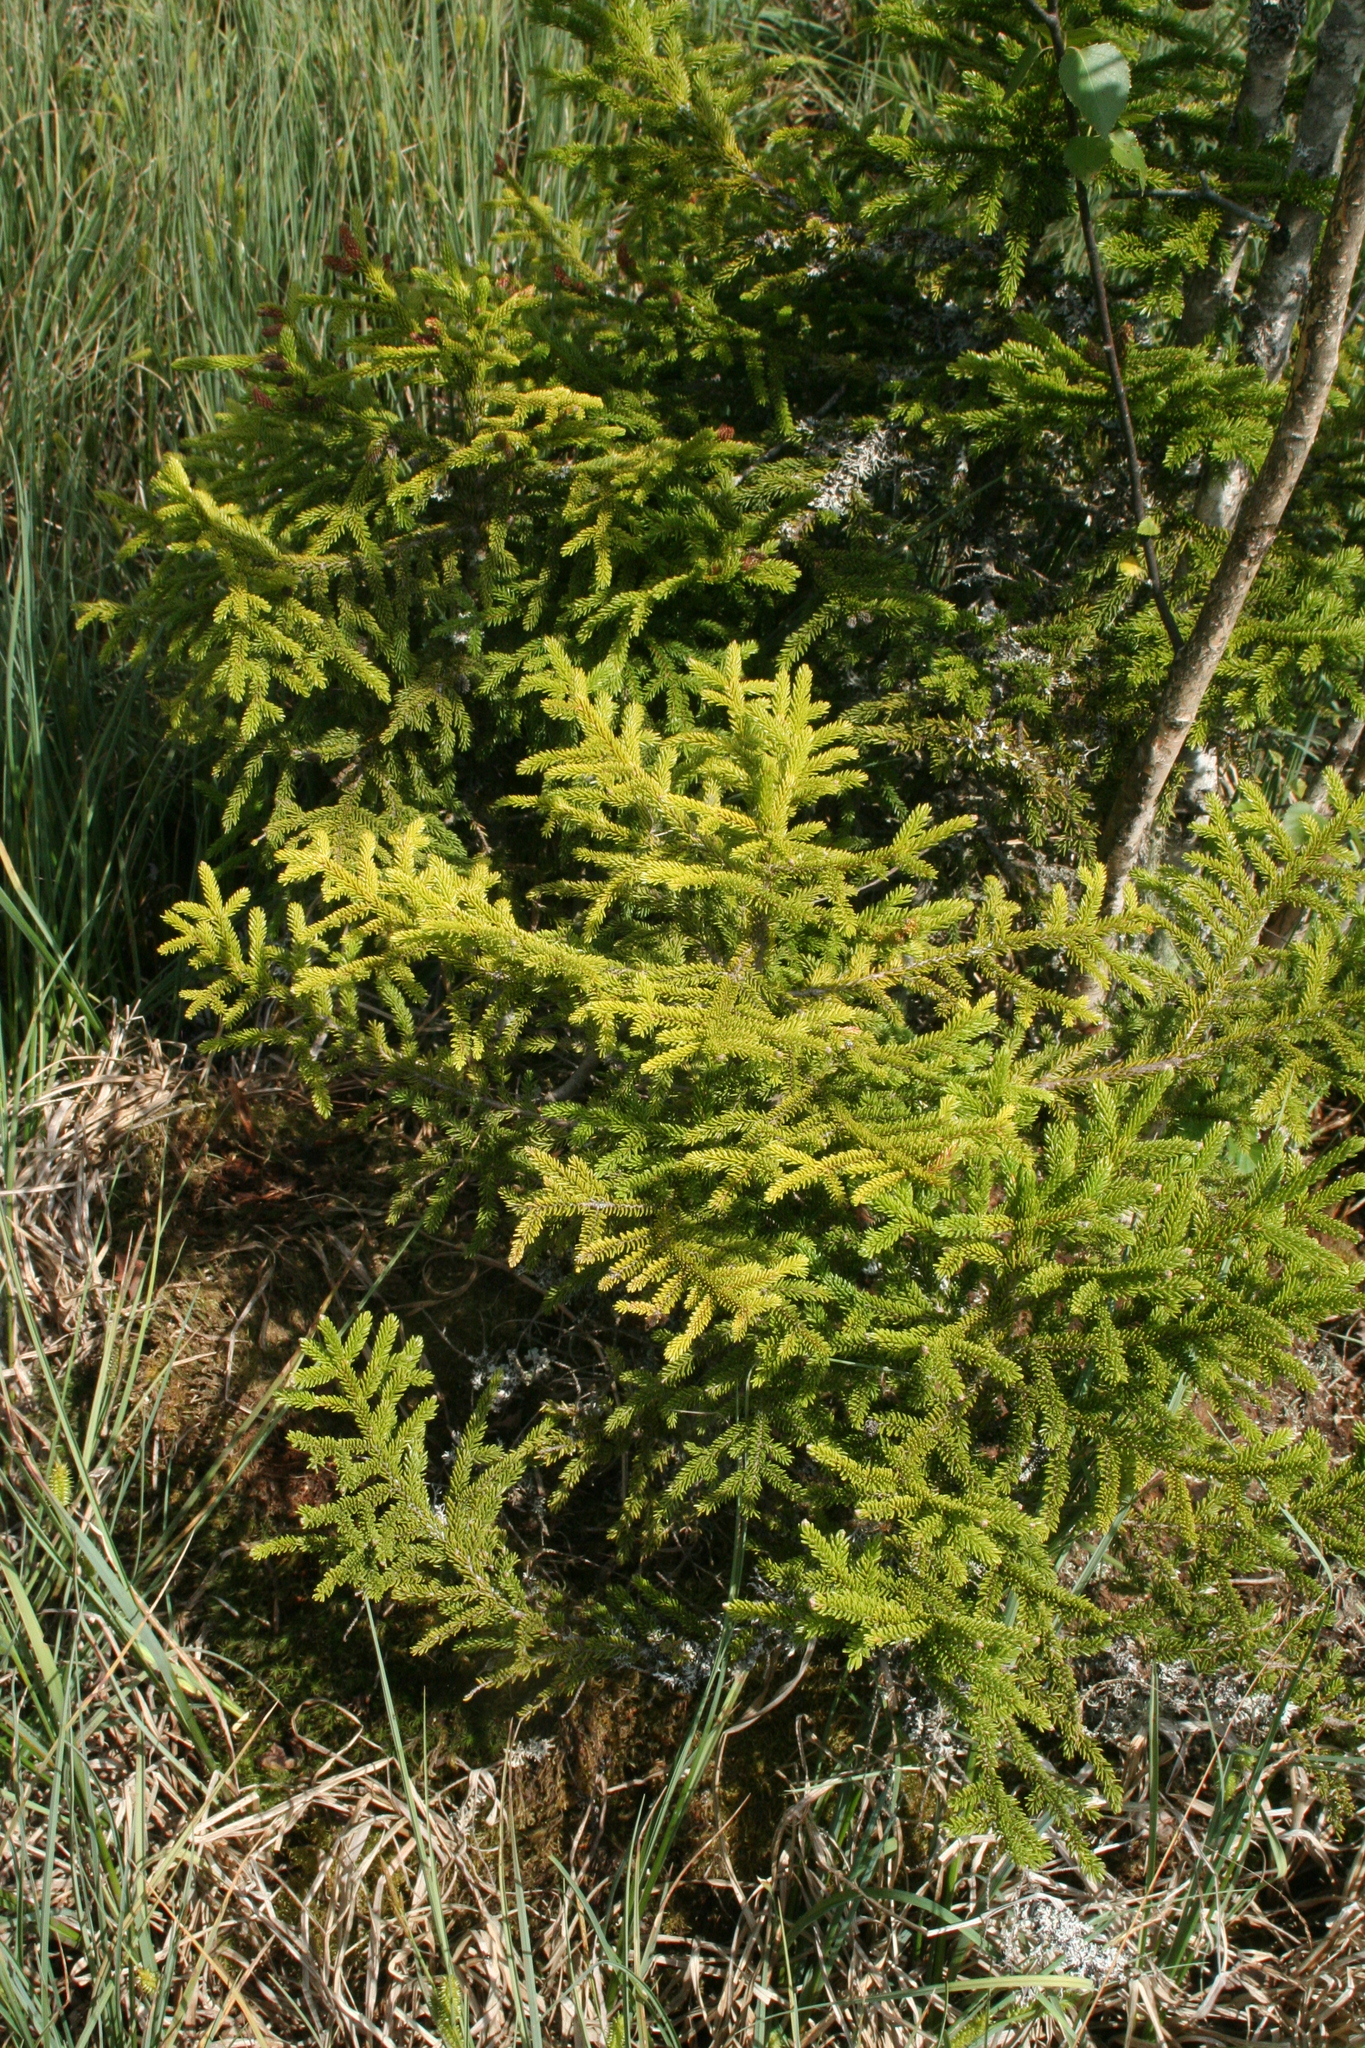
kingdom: Plantae
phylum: Tracheophyta
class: Pinopsida
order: Pinales
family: Pinaceae
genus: Picea
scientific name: Picea orientalis
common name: Oriental spruce
